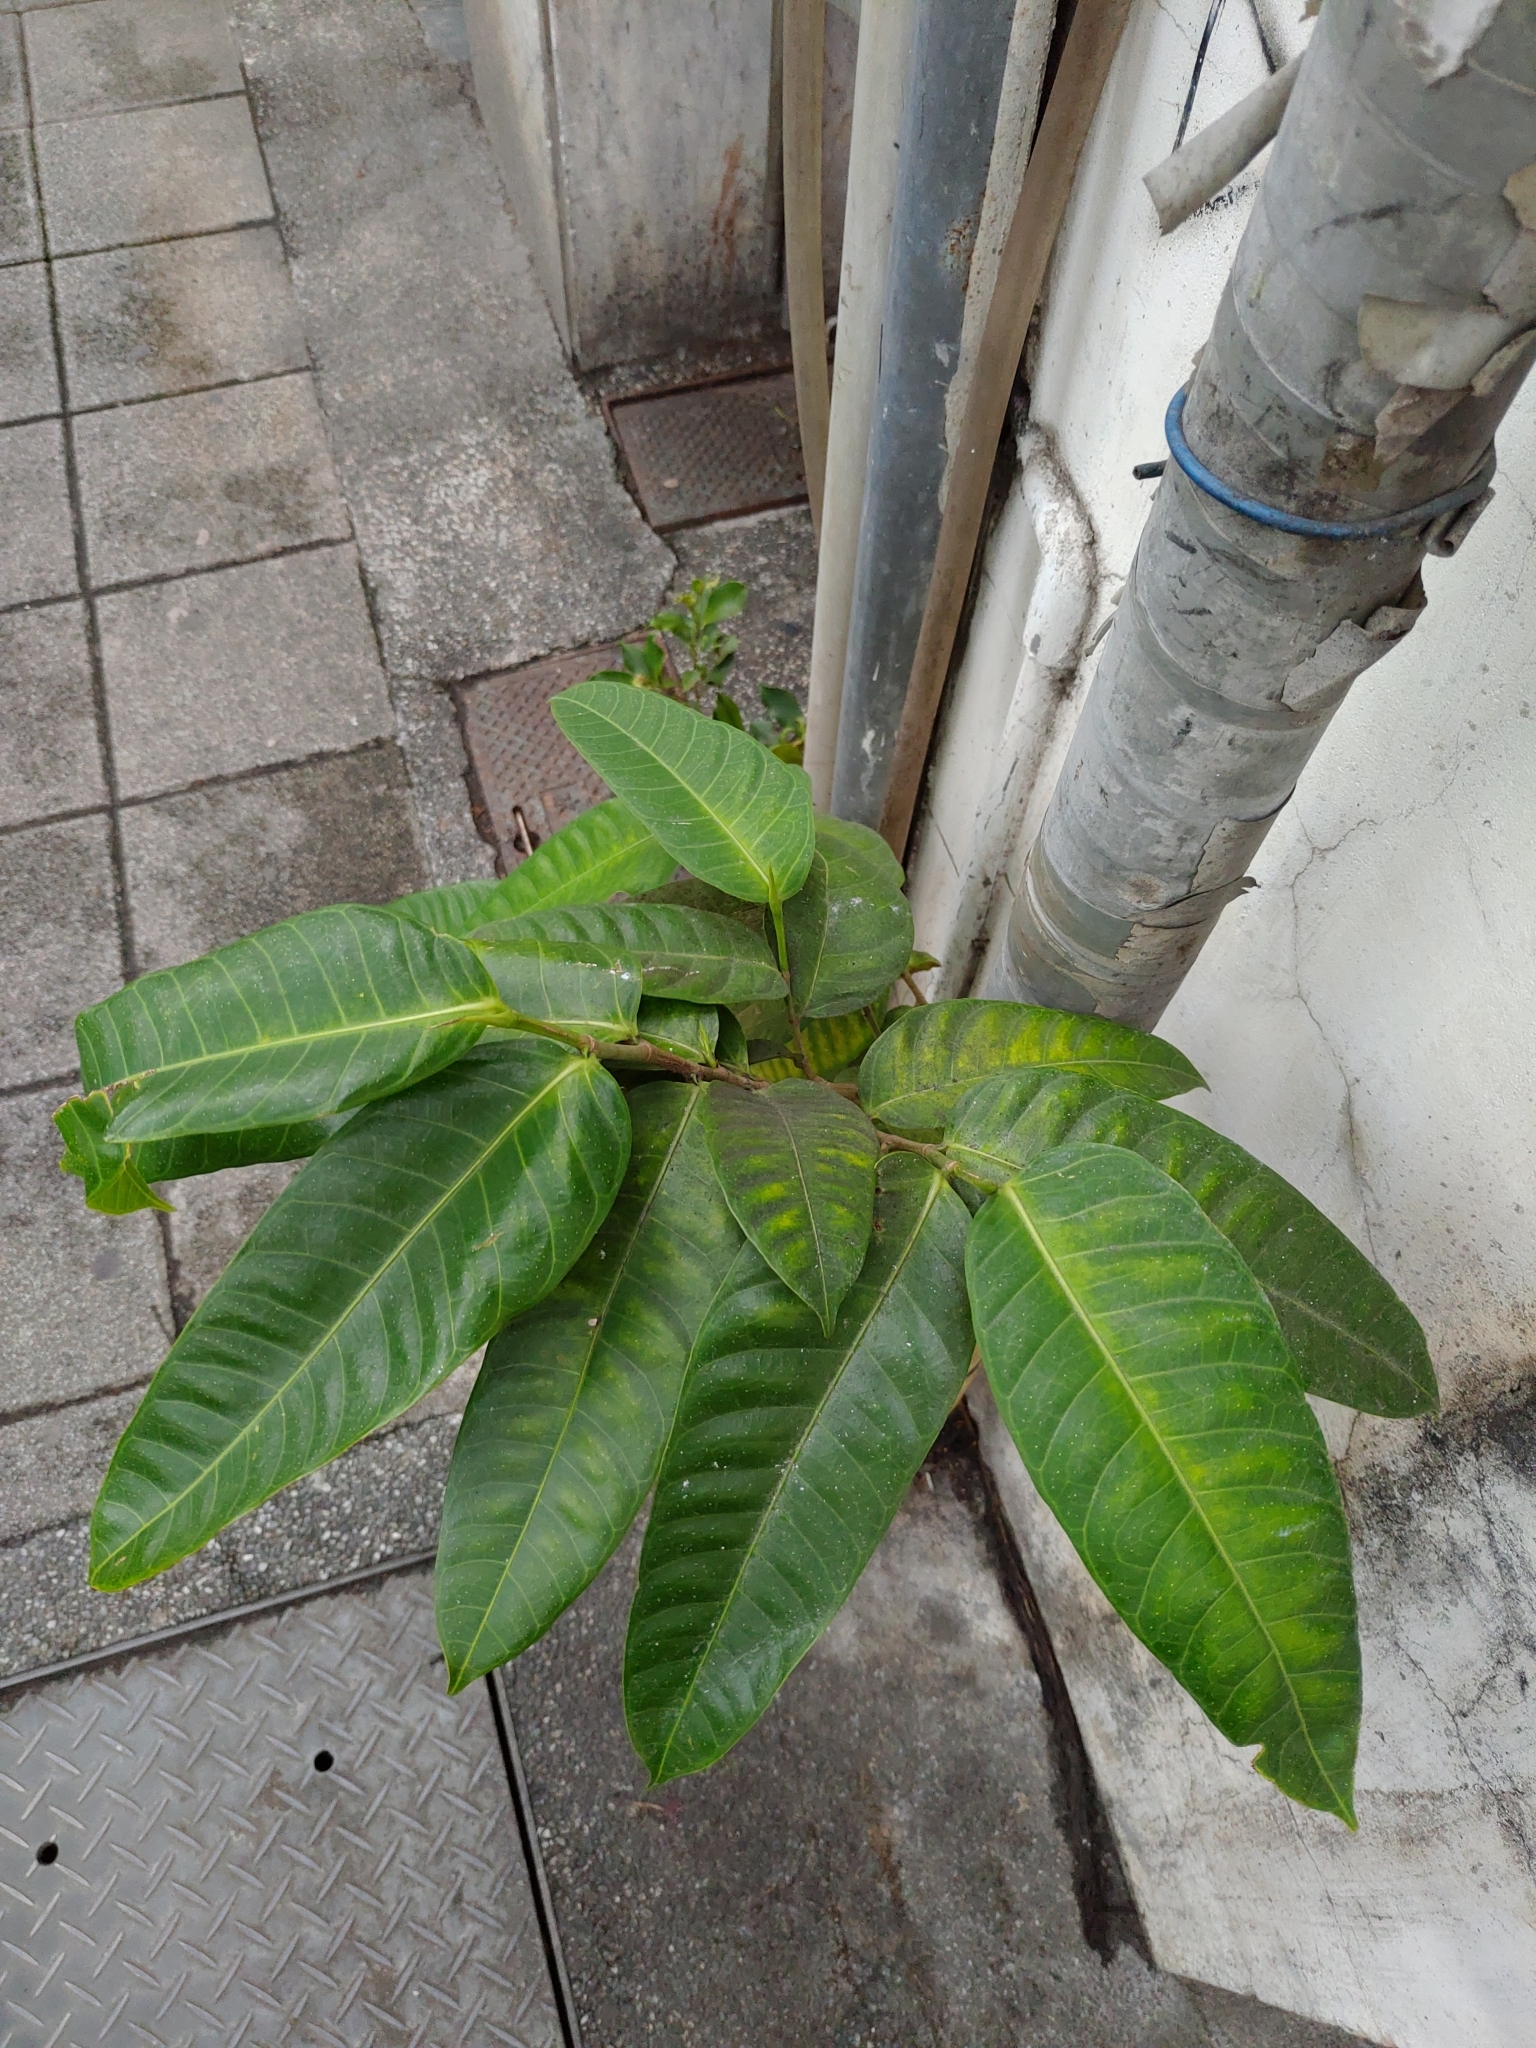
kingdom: Plantae
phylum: Tracheophyta
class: Magnoliopsida
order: Rosales
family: Moraceae
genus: Ficus
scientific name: Ficus virgata
